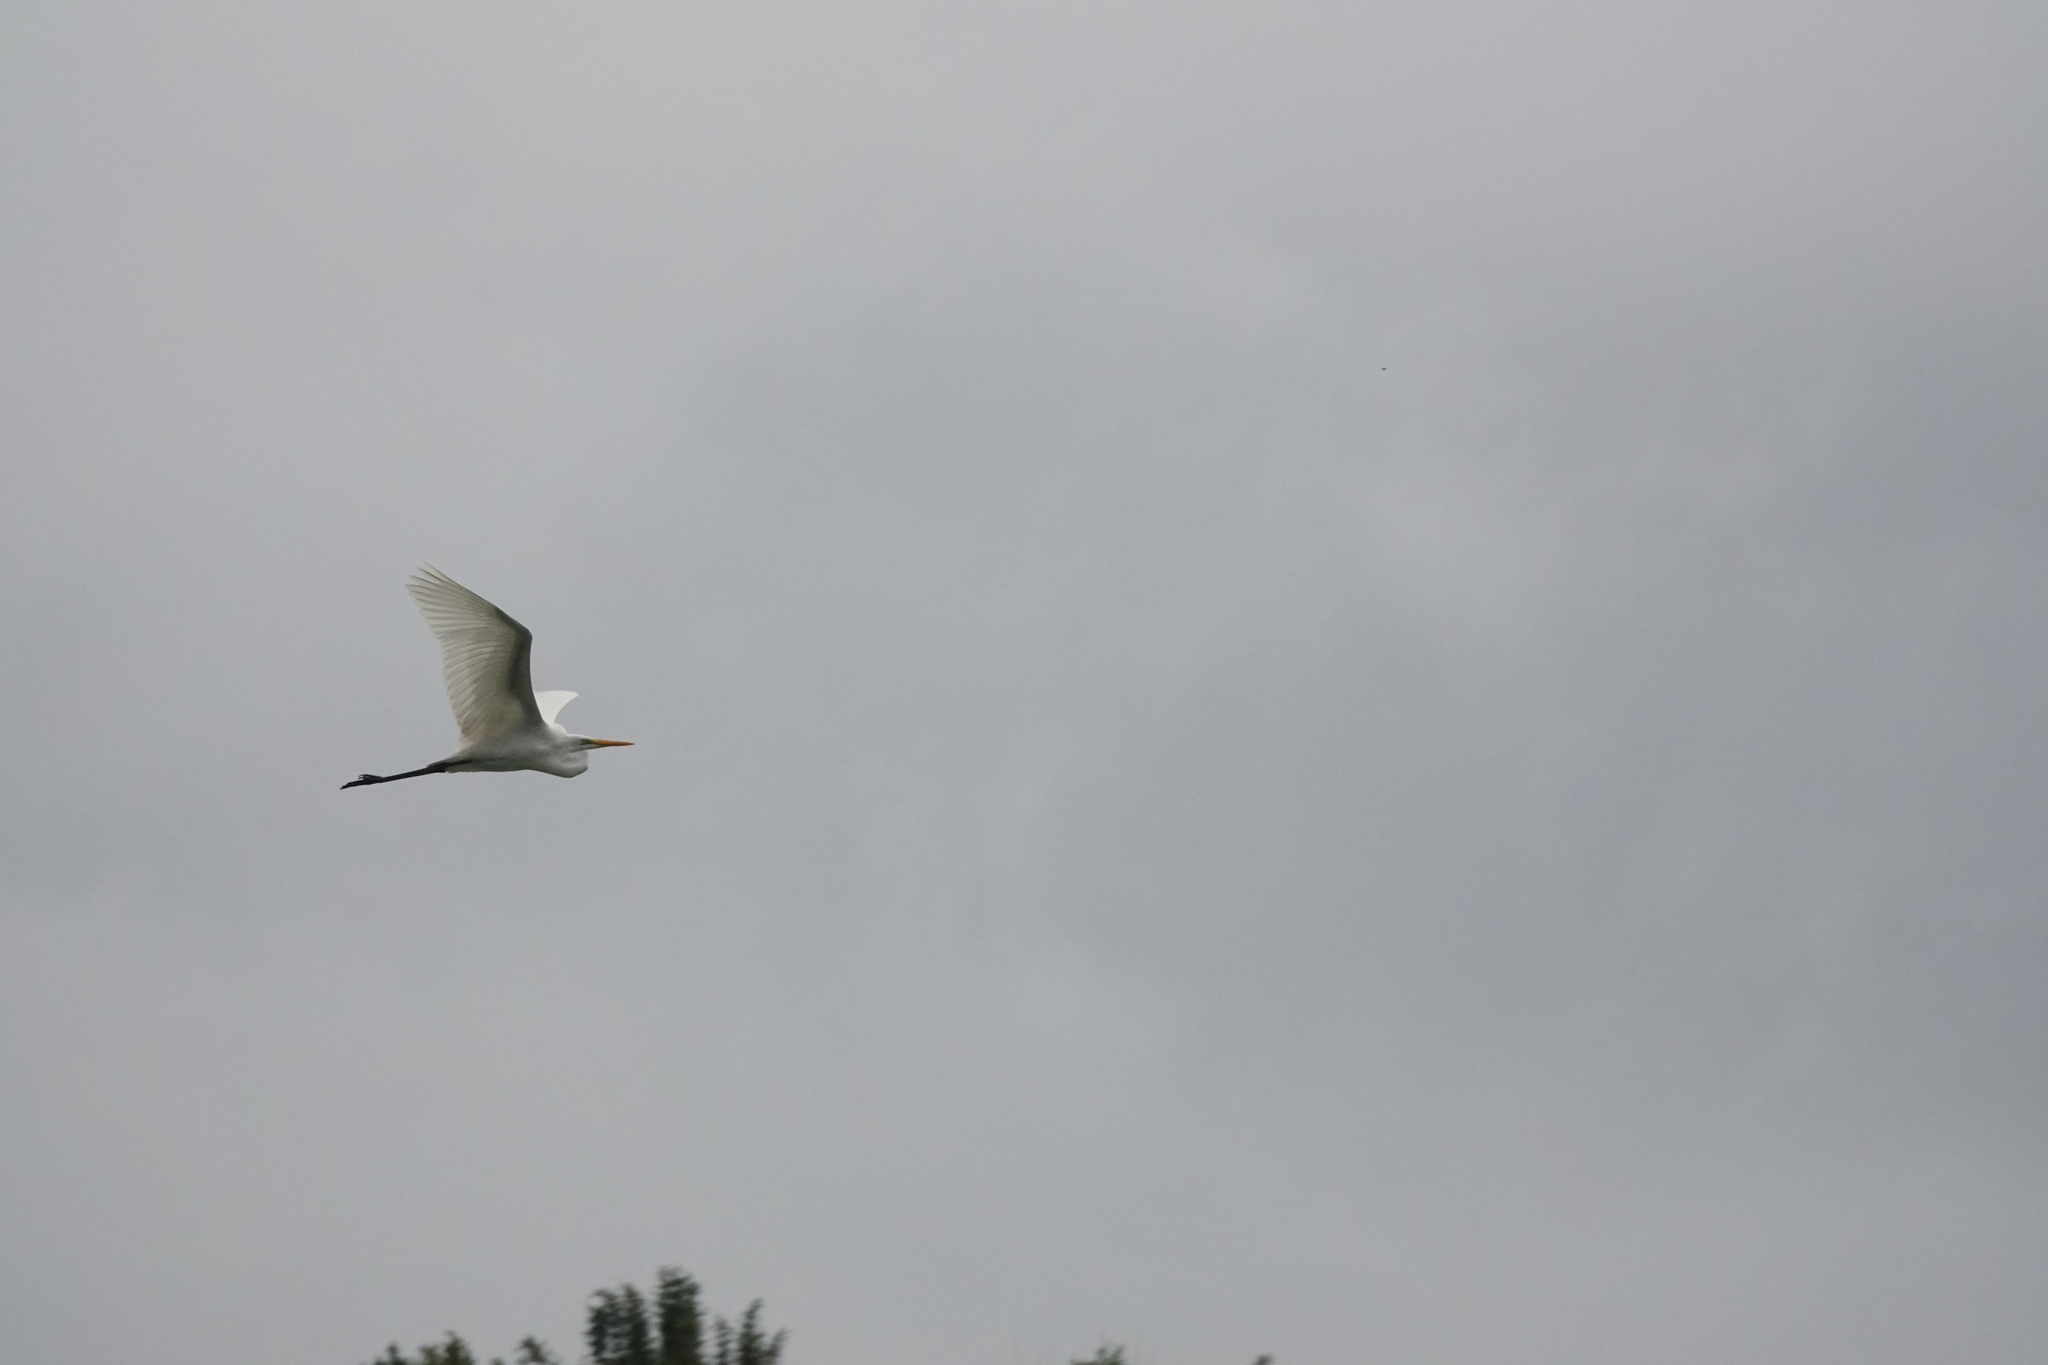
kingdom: Animalia
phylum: Chordata
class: Aves
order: Pelecaniformes
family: Ardeidae
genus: Ardea
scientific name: Ardea alba
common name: Great egret
